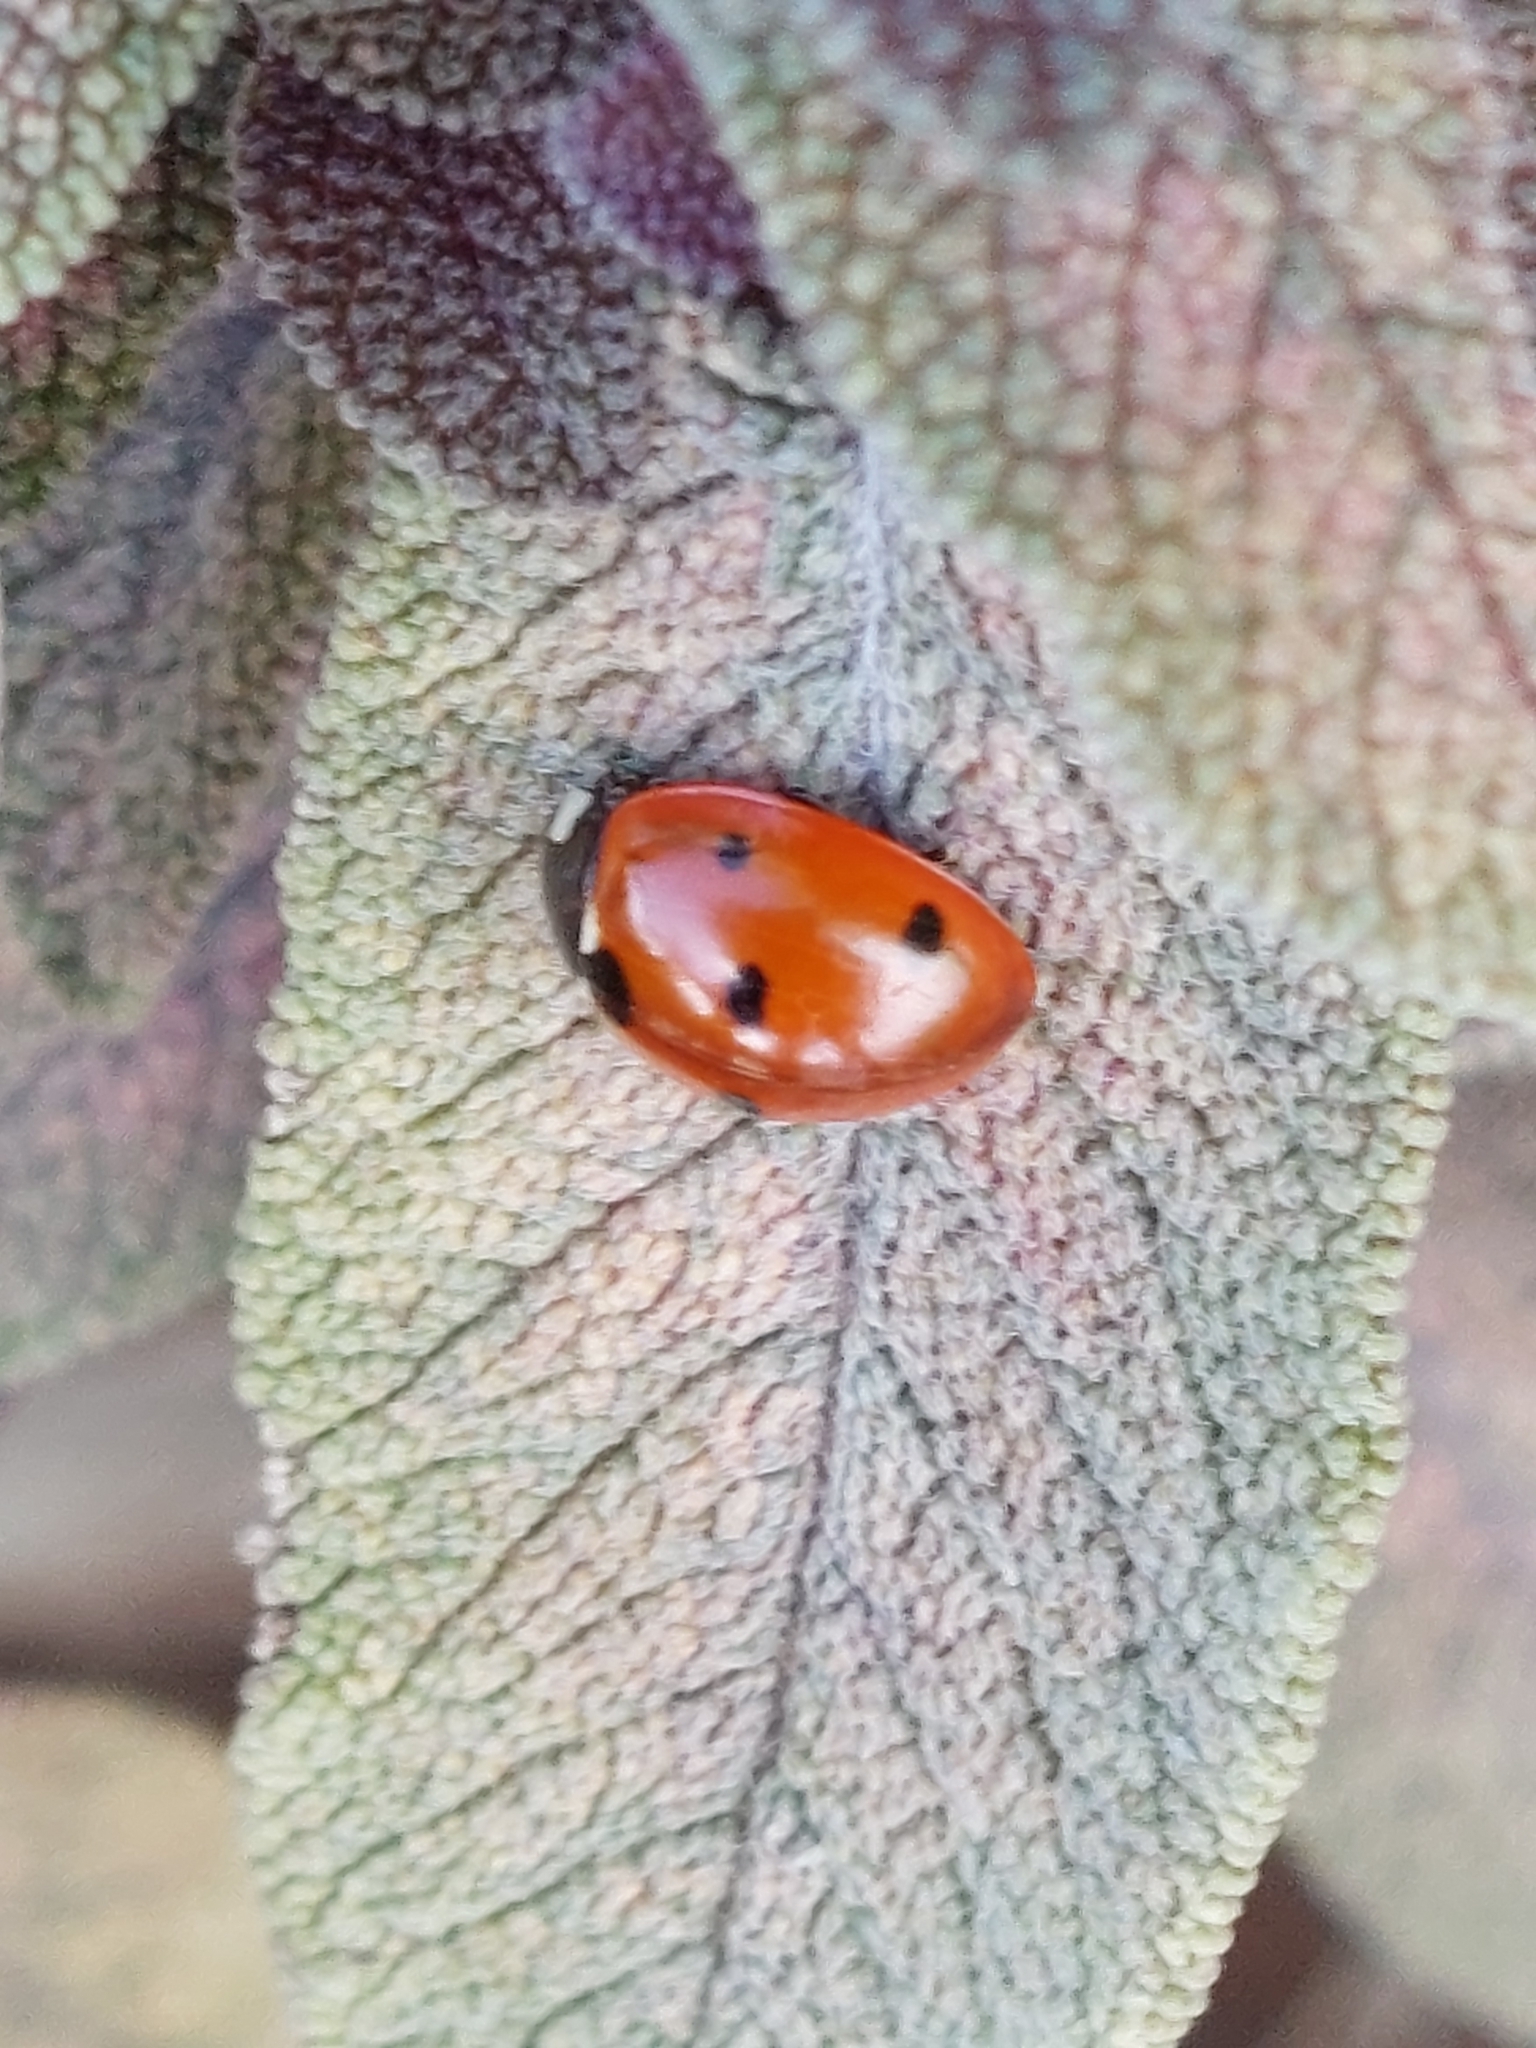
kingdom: Animalia
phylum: Arthropoda
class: Insecta
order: Coleoptera
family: Coccinellidae
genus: Coccinella
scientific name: Coccinella septempunctata
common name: Sevenspotted lady beetle
